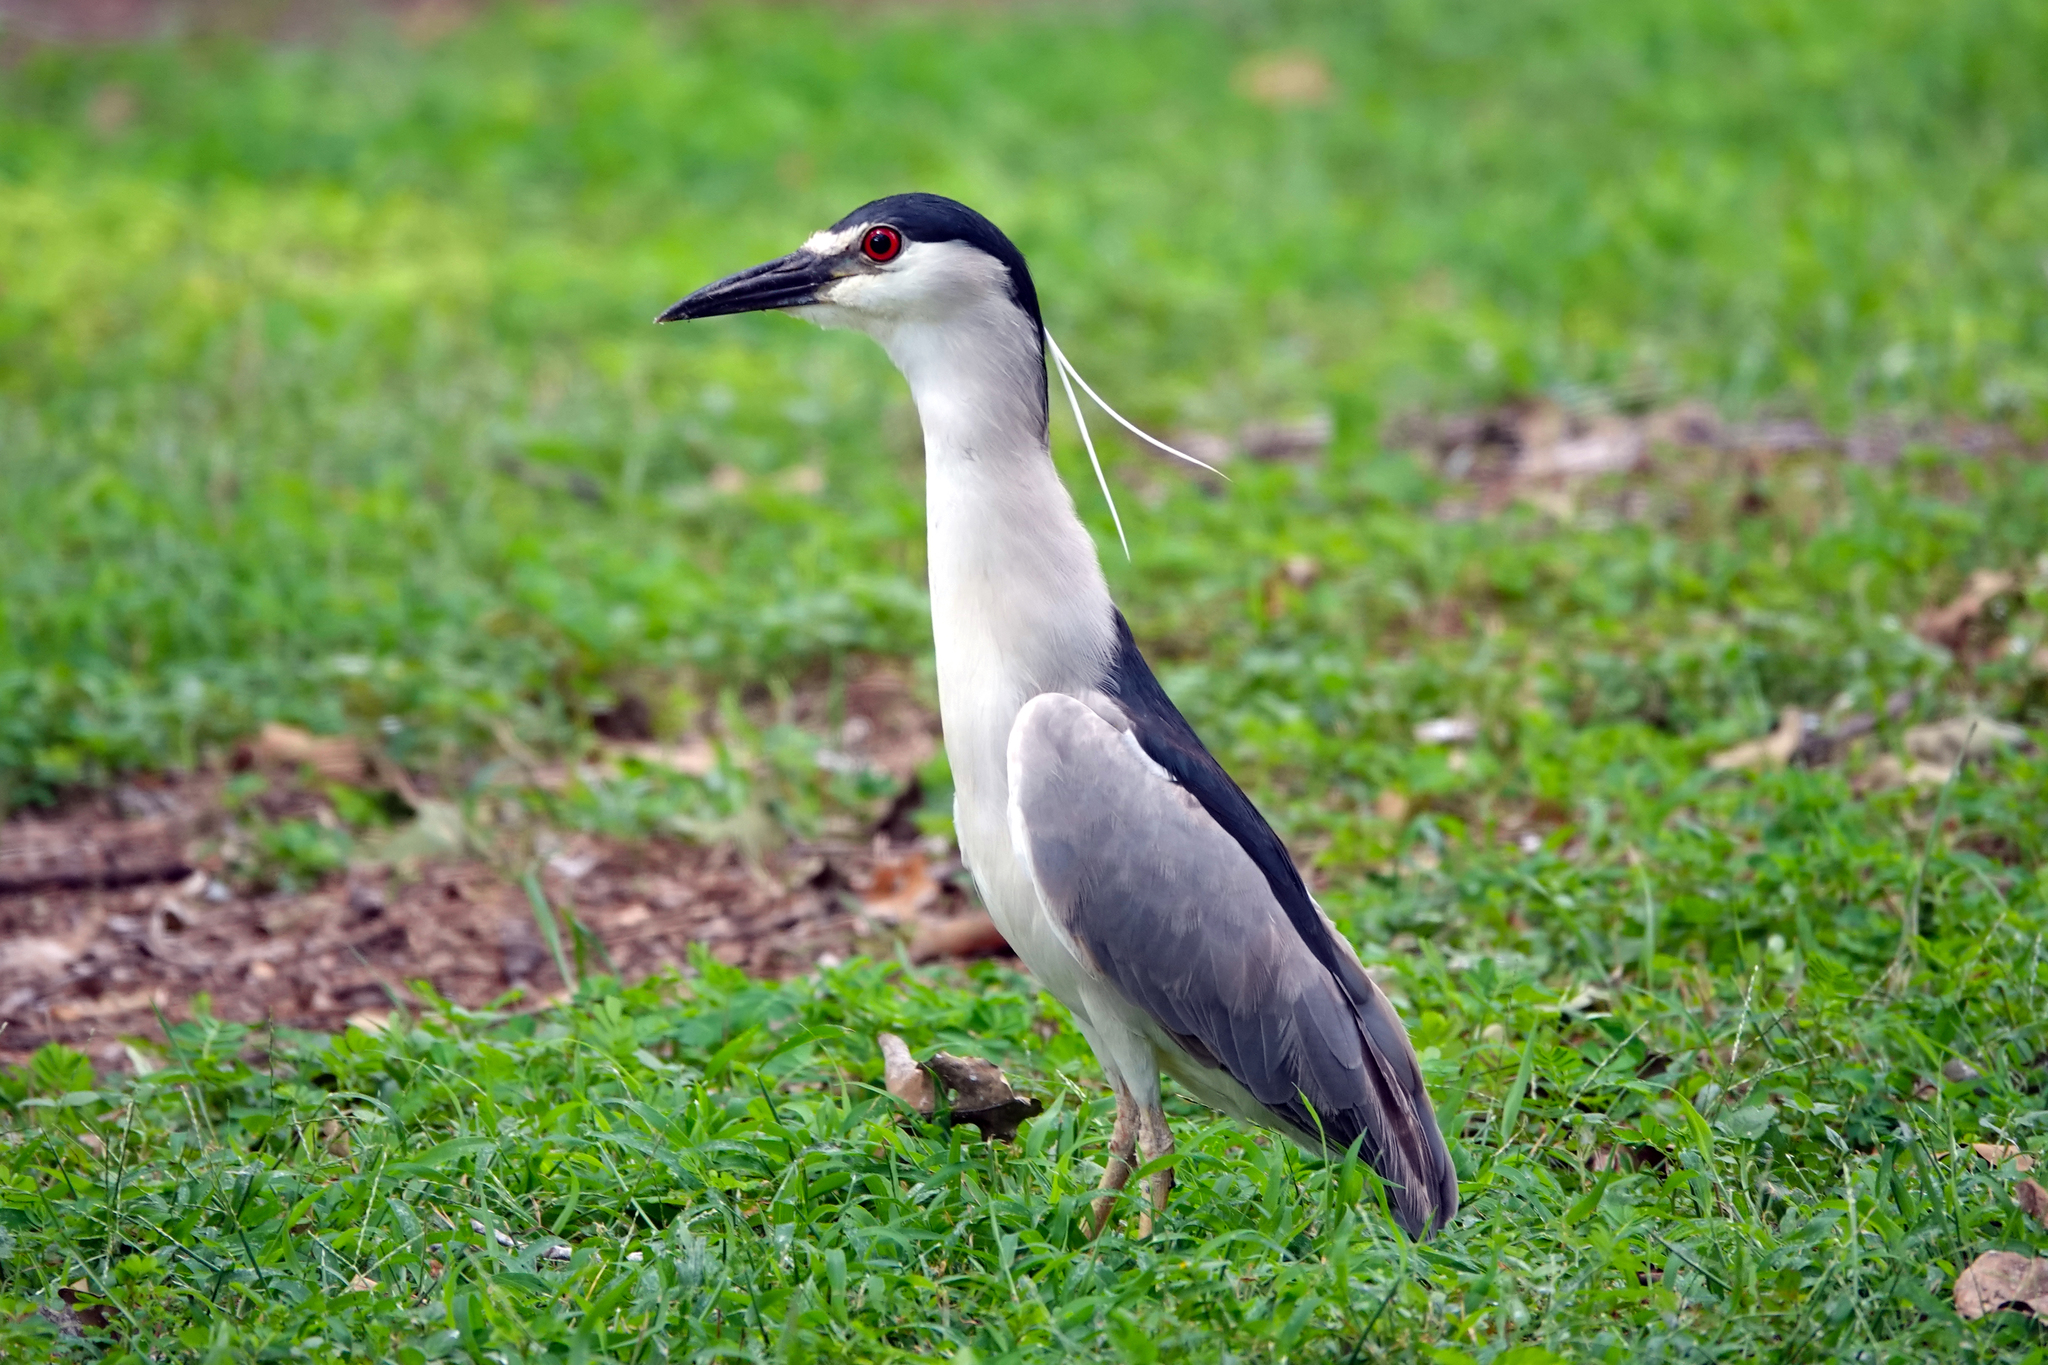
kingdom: Animalia
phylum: Chordata
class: Aves
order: Pelecaniformes
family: Ardeidae
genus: Nycticorax
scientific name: Nycticorax nycticorax
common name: Black-crowned night heron
